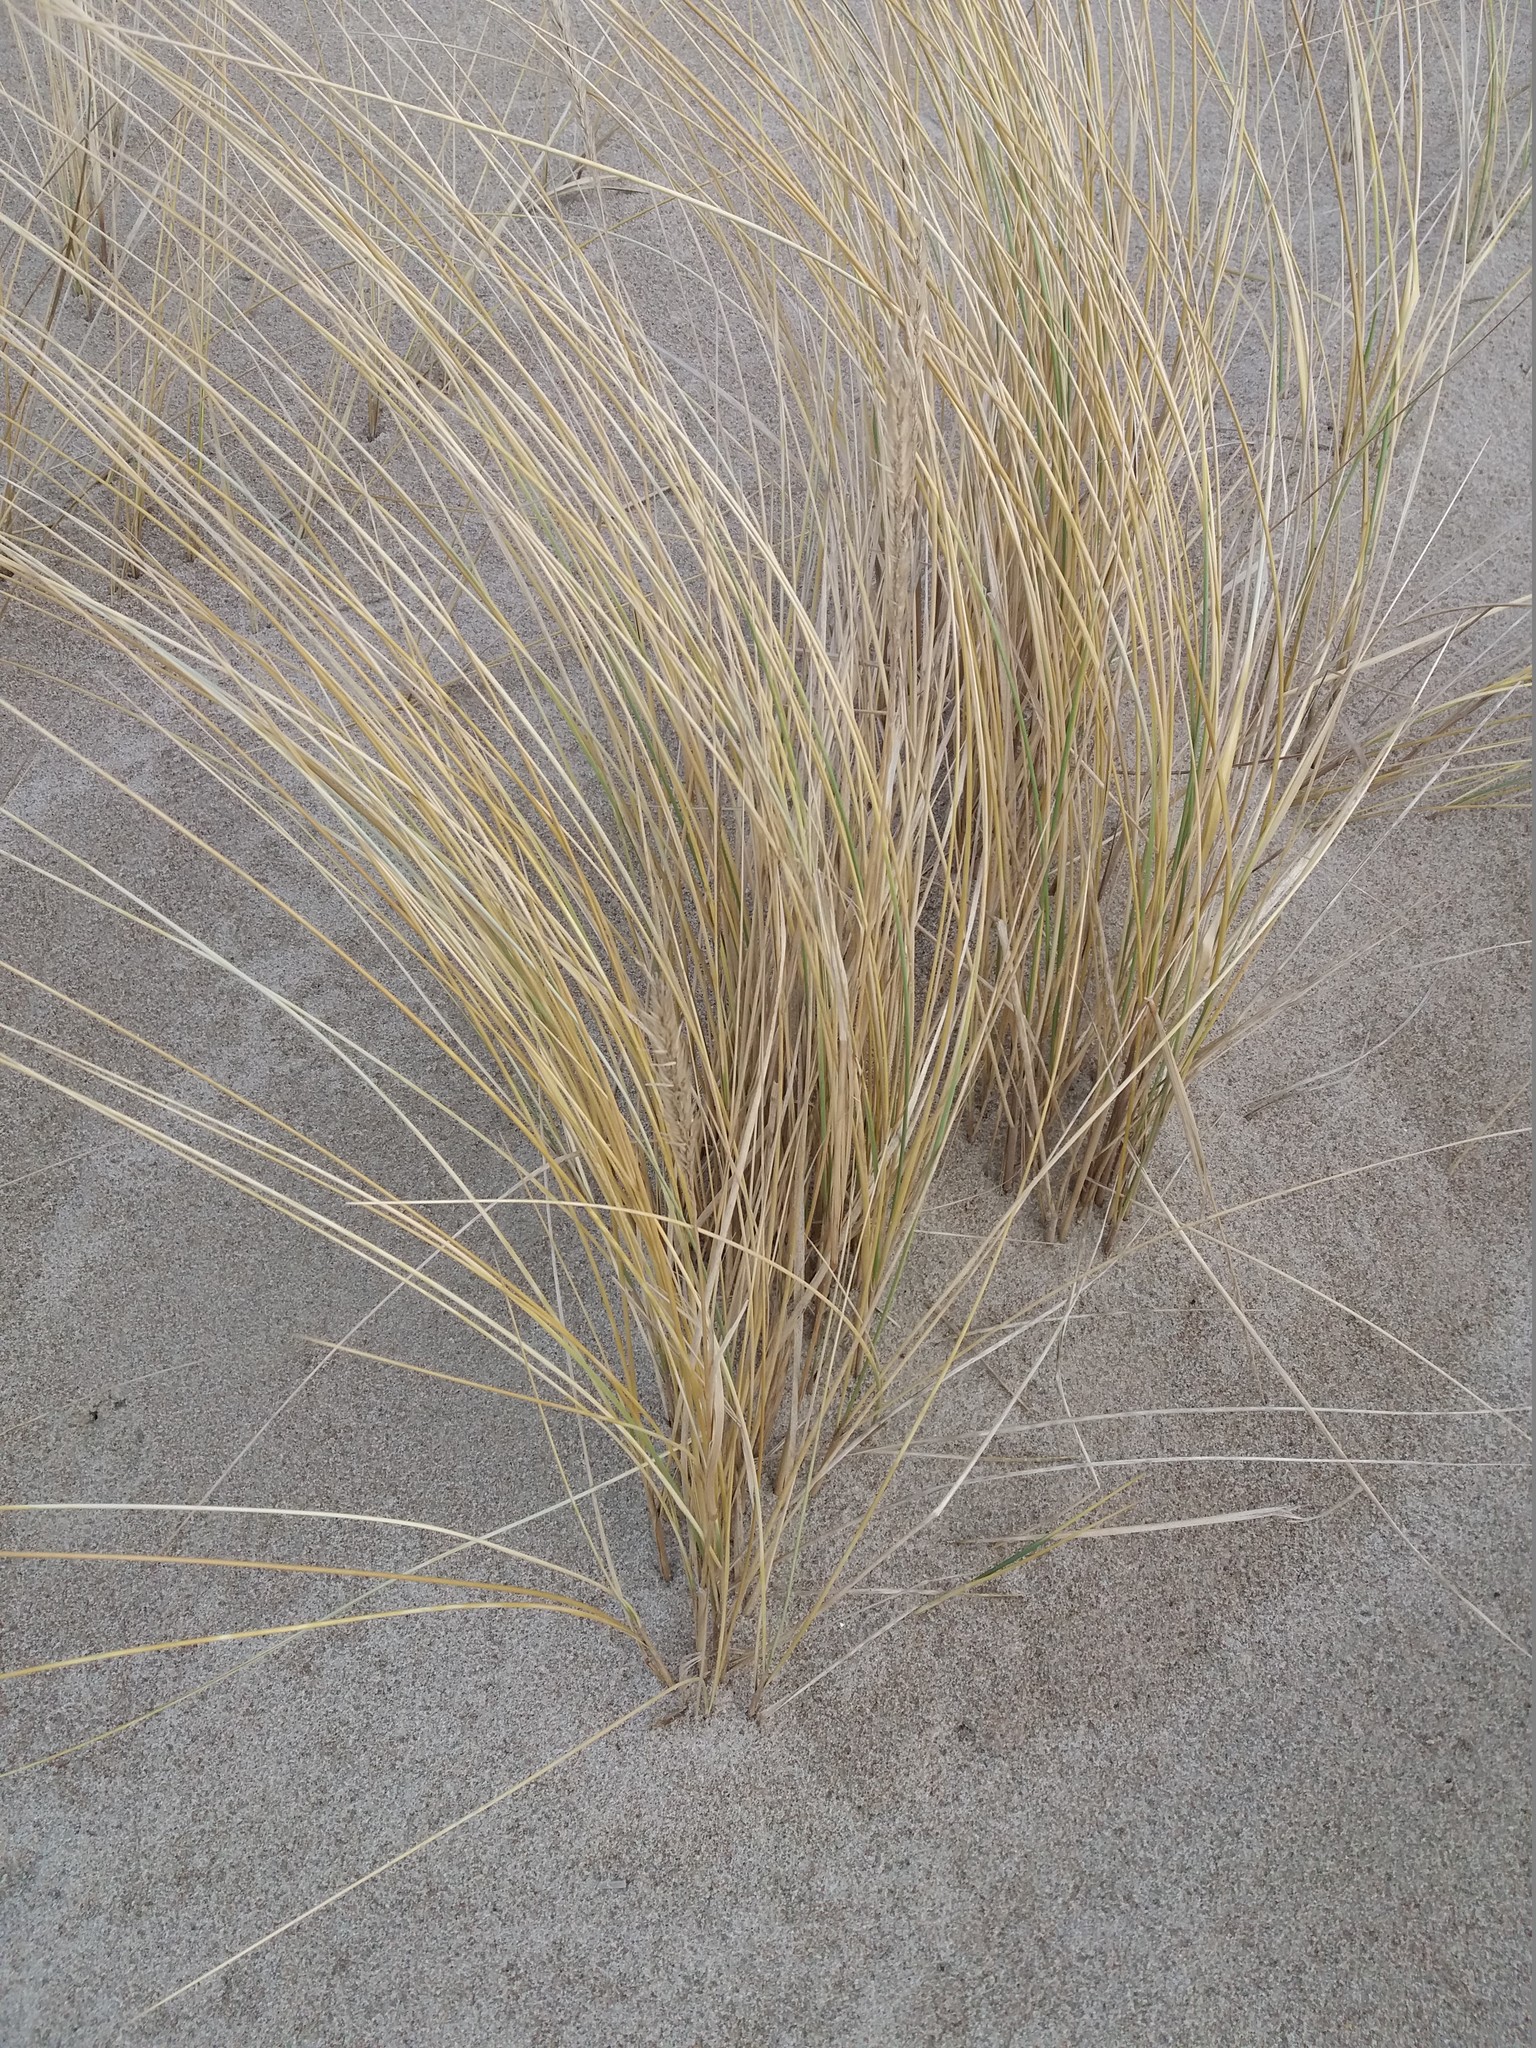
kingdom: Plantae
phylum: Tracheophyta
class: Liliopsida
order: Poales
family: Poaceae
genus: Calamagrostis
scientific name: Calamagrostis arenaria
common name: European beachgrass
